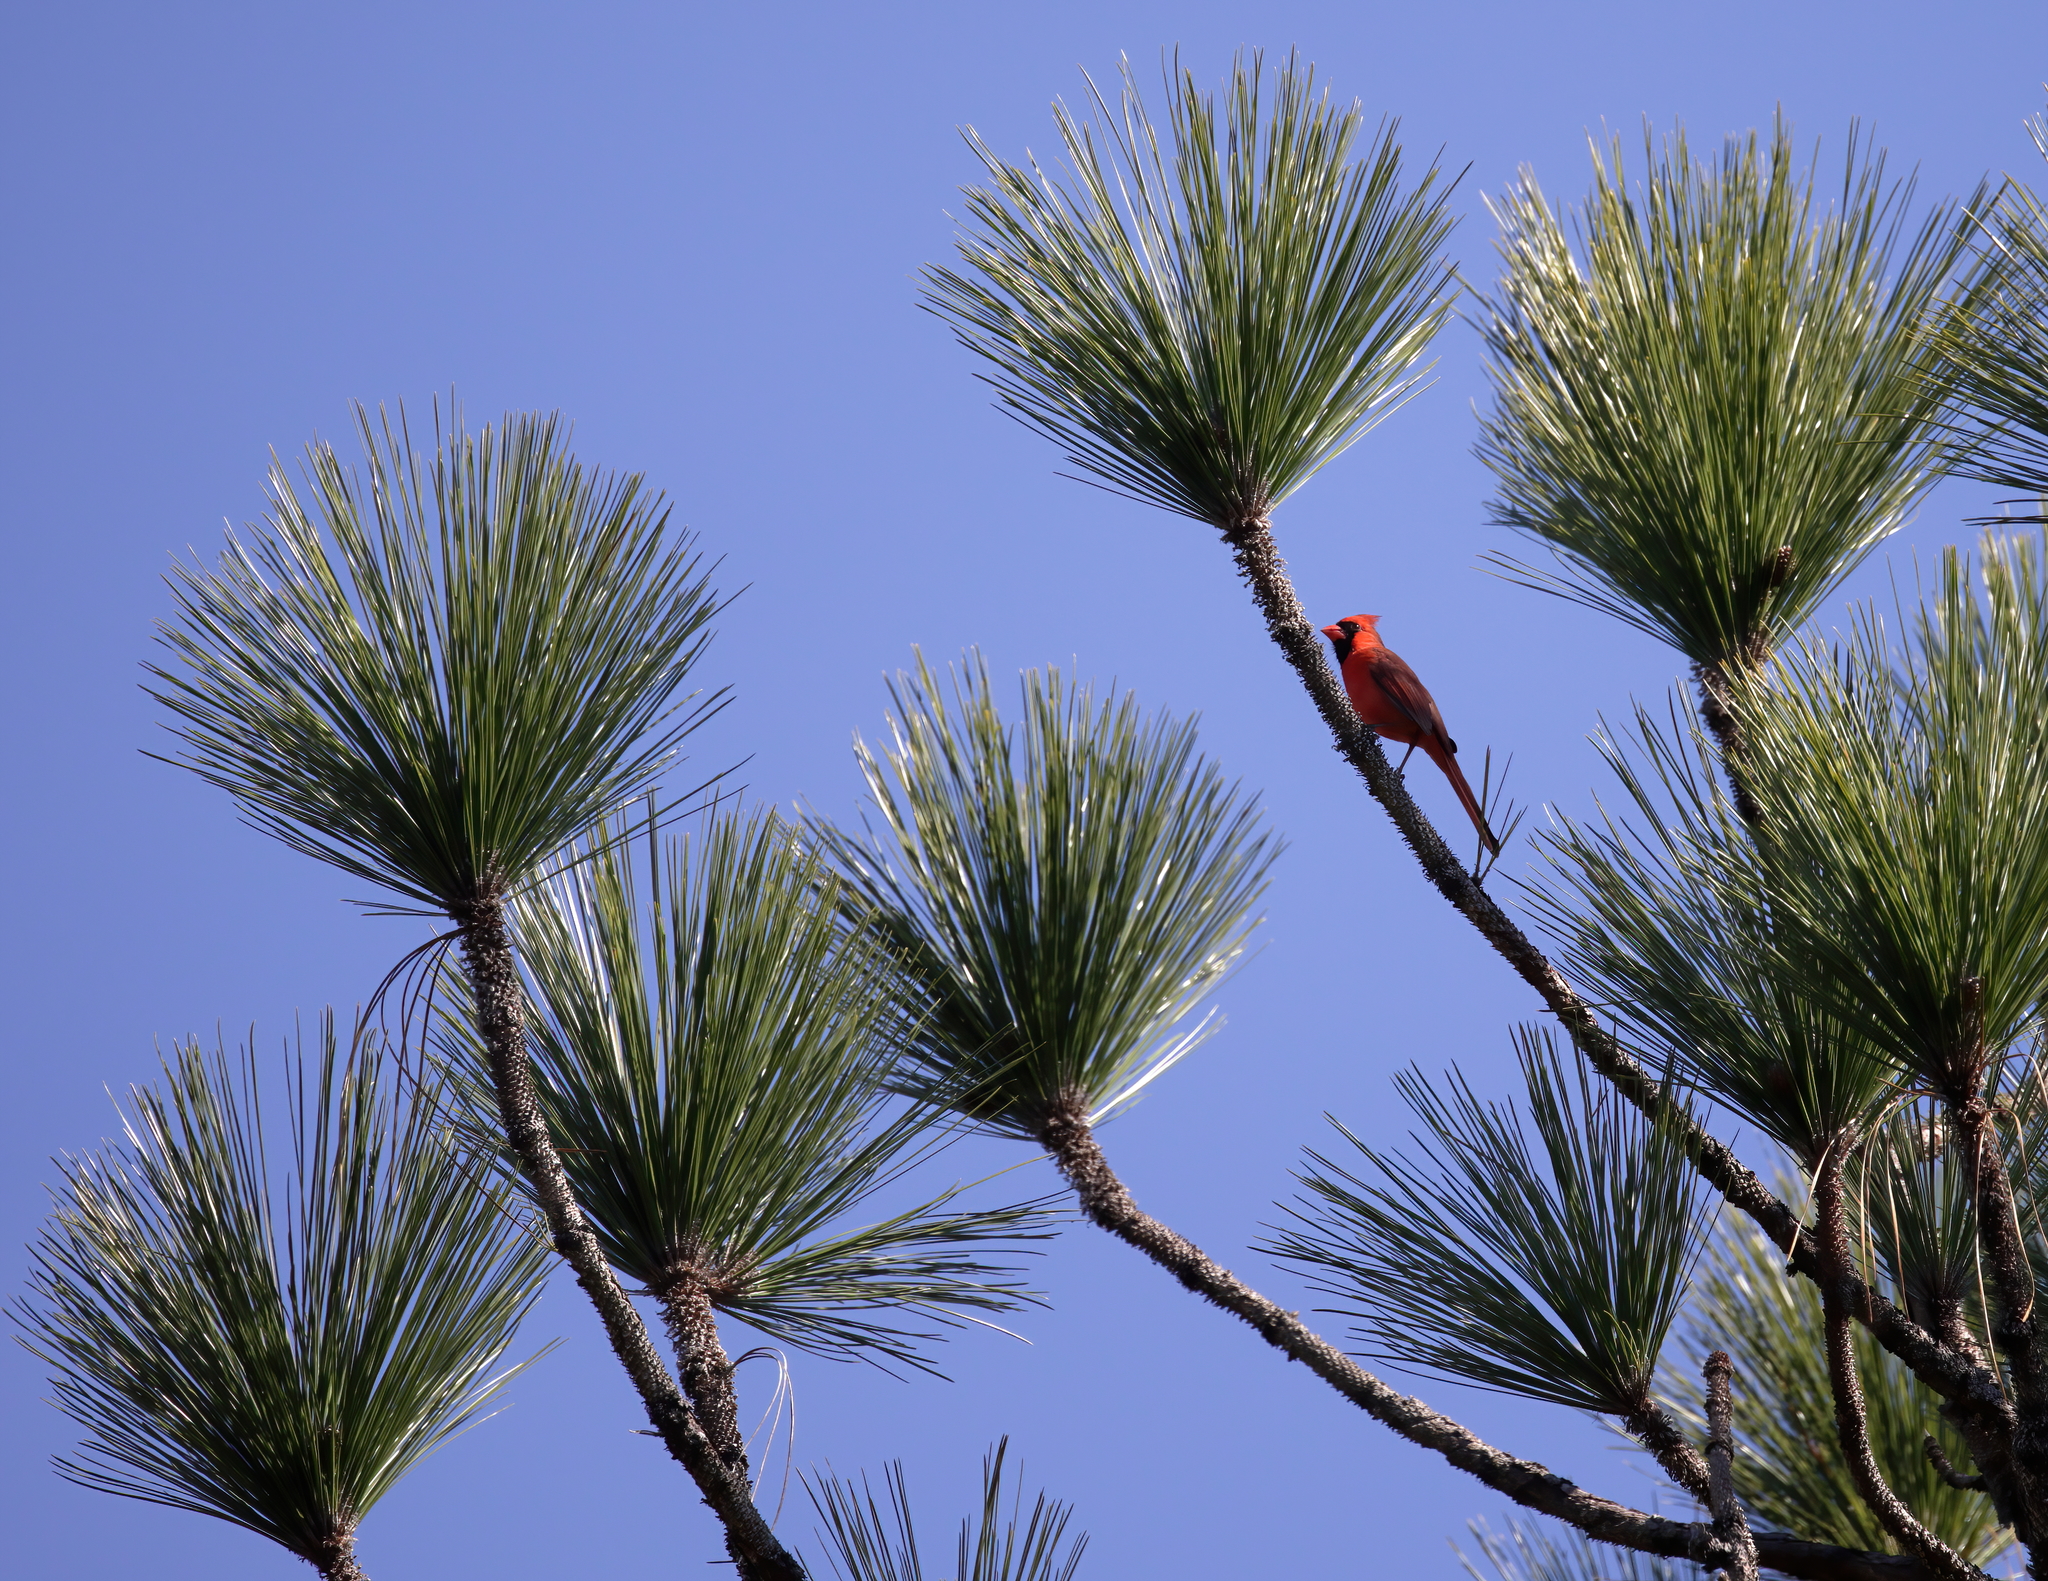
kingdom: Plantae
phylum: Tracheophyta
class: Pinopsida
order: Pinales
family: Pinaceae
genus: Pinus
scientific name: Pinus palustris
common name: Longleaf pine
